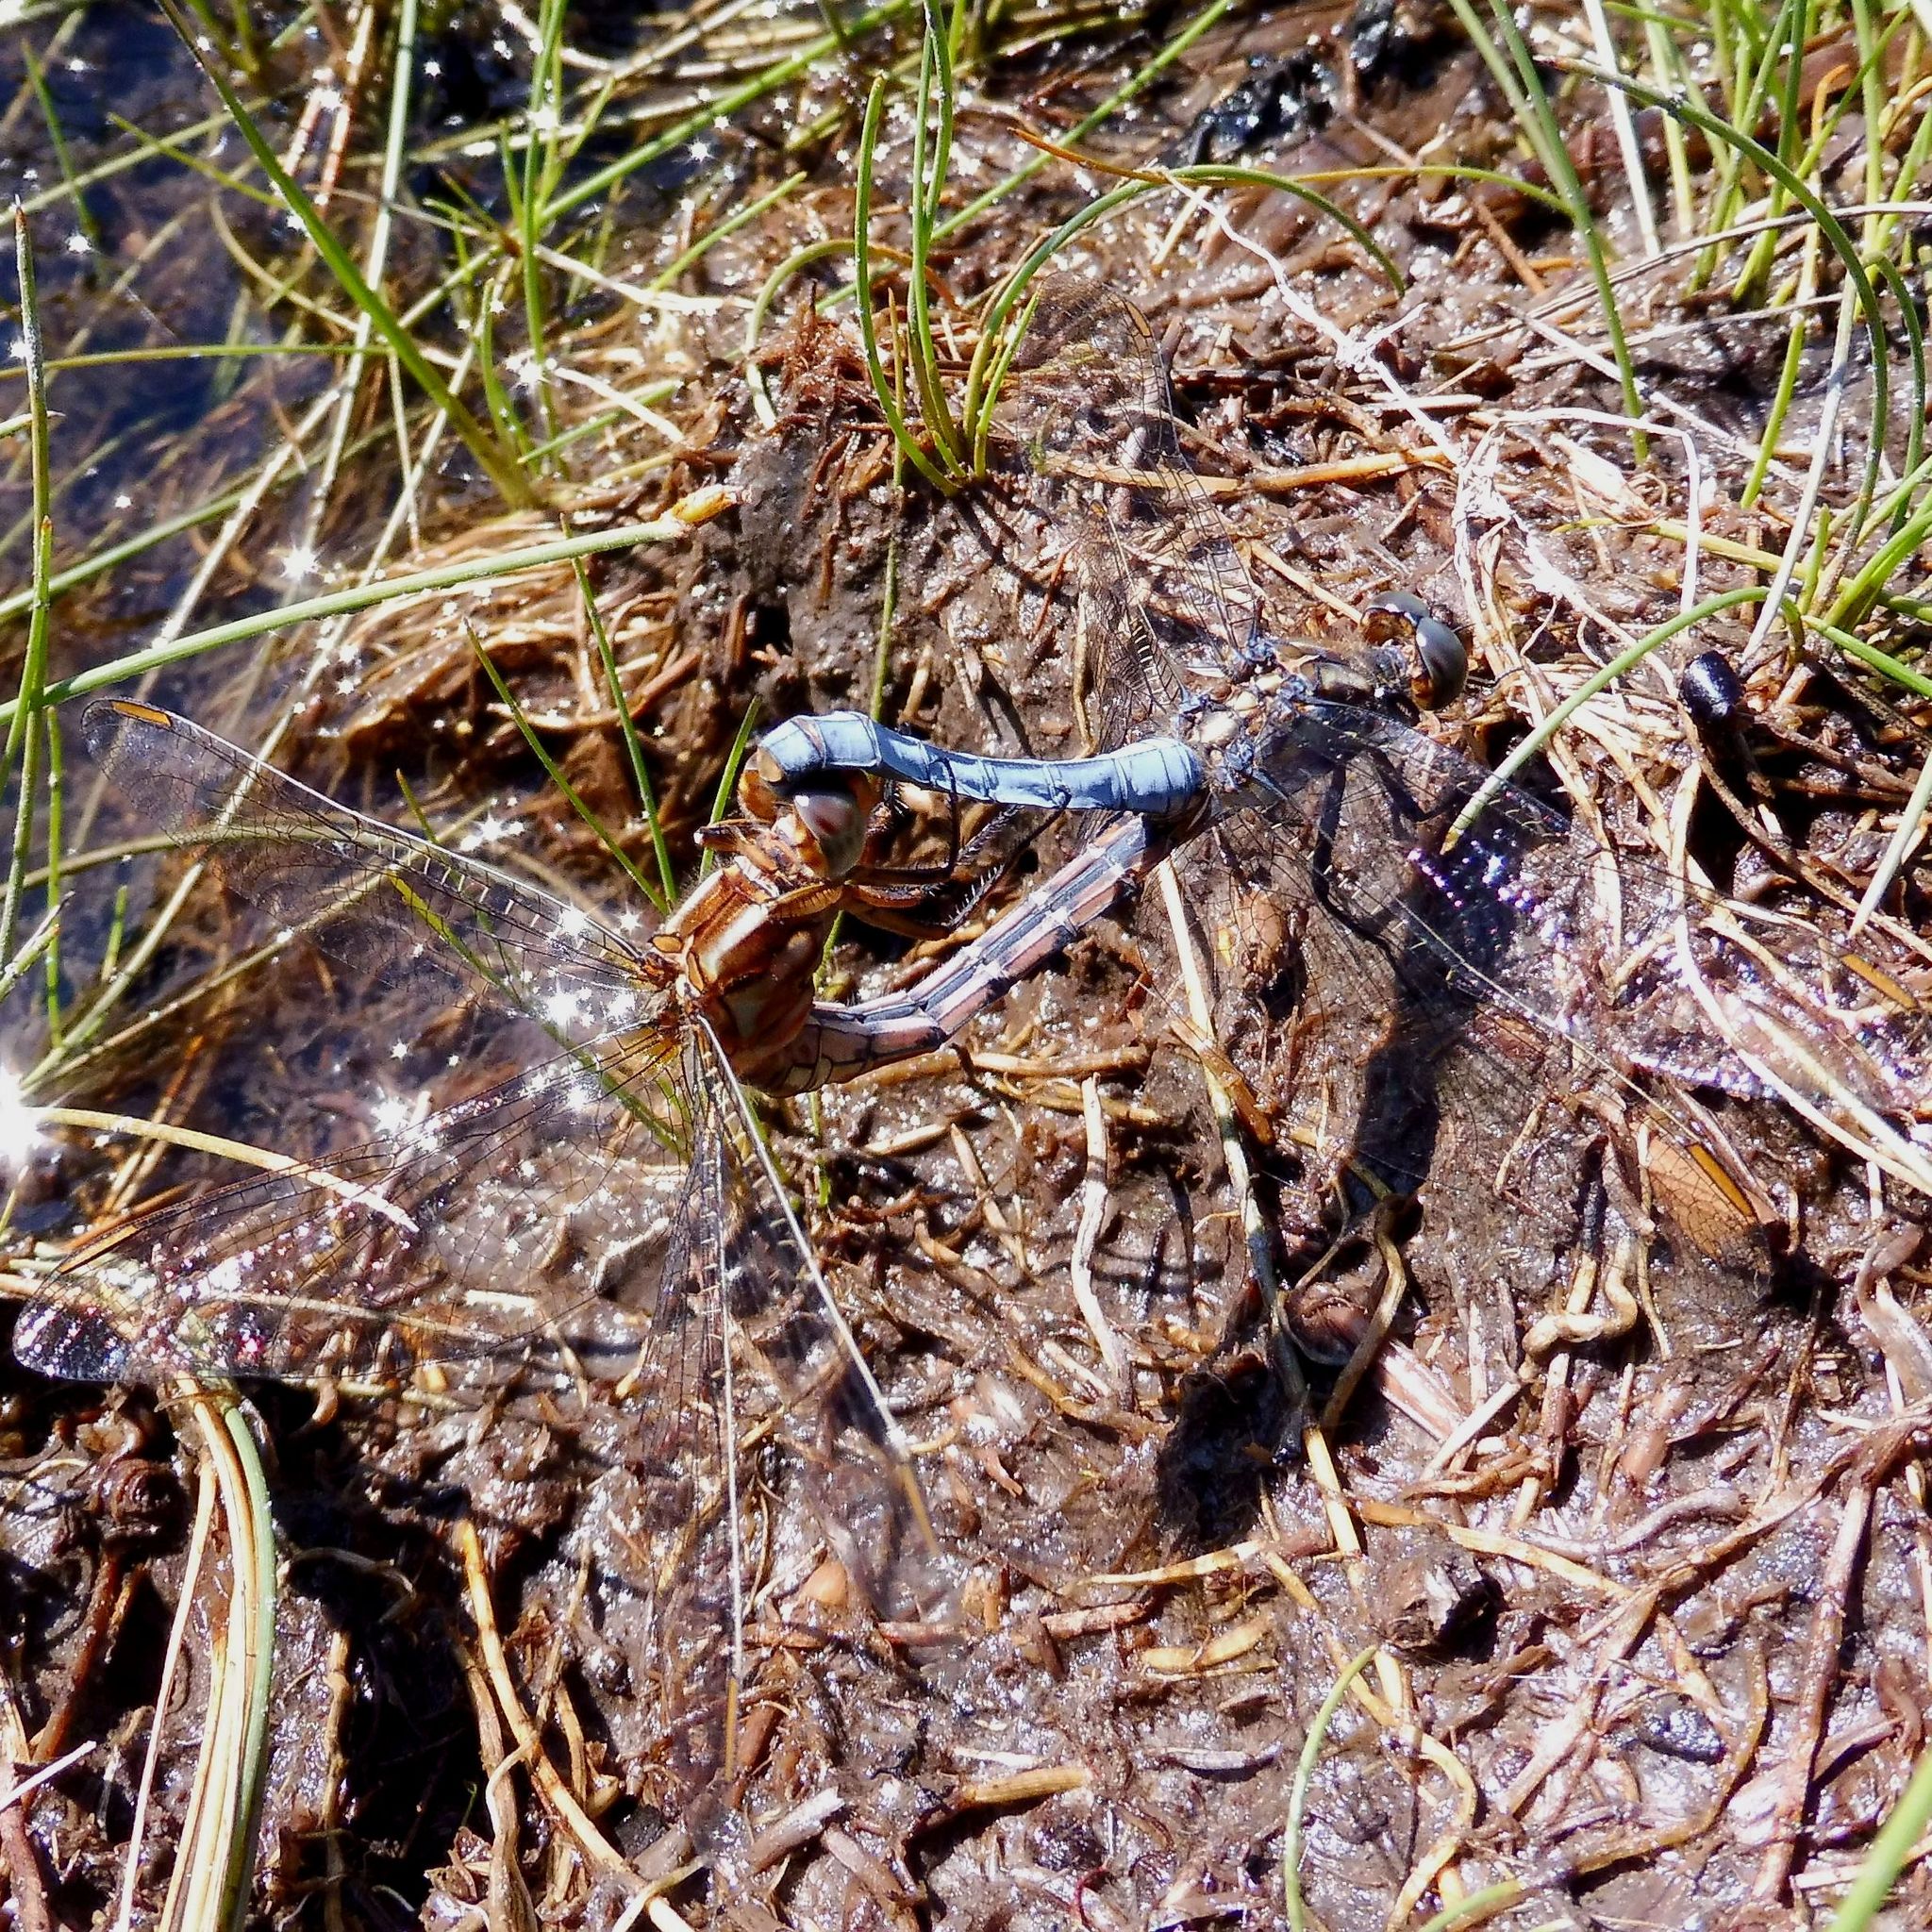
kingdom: Animalia
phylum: Arthropoda
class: Insecta
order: Odonata
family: Libellulidae
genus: Orthetrum
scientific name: Orthetrum coerulescens
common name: Keeled skimmer
